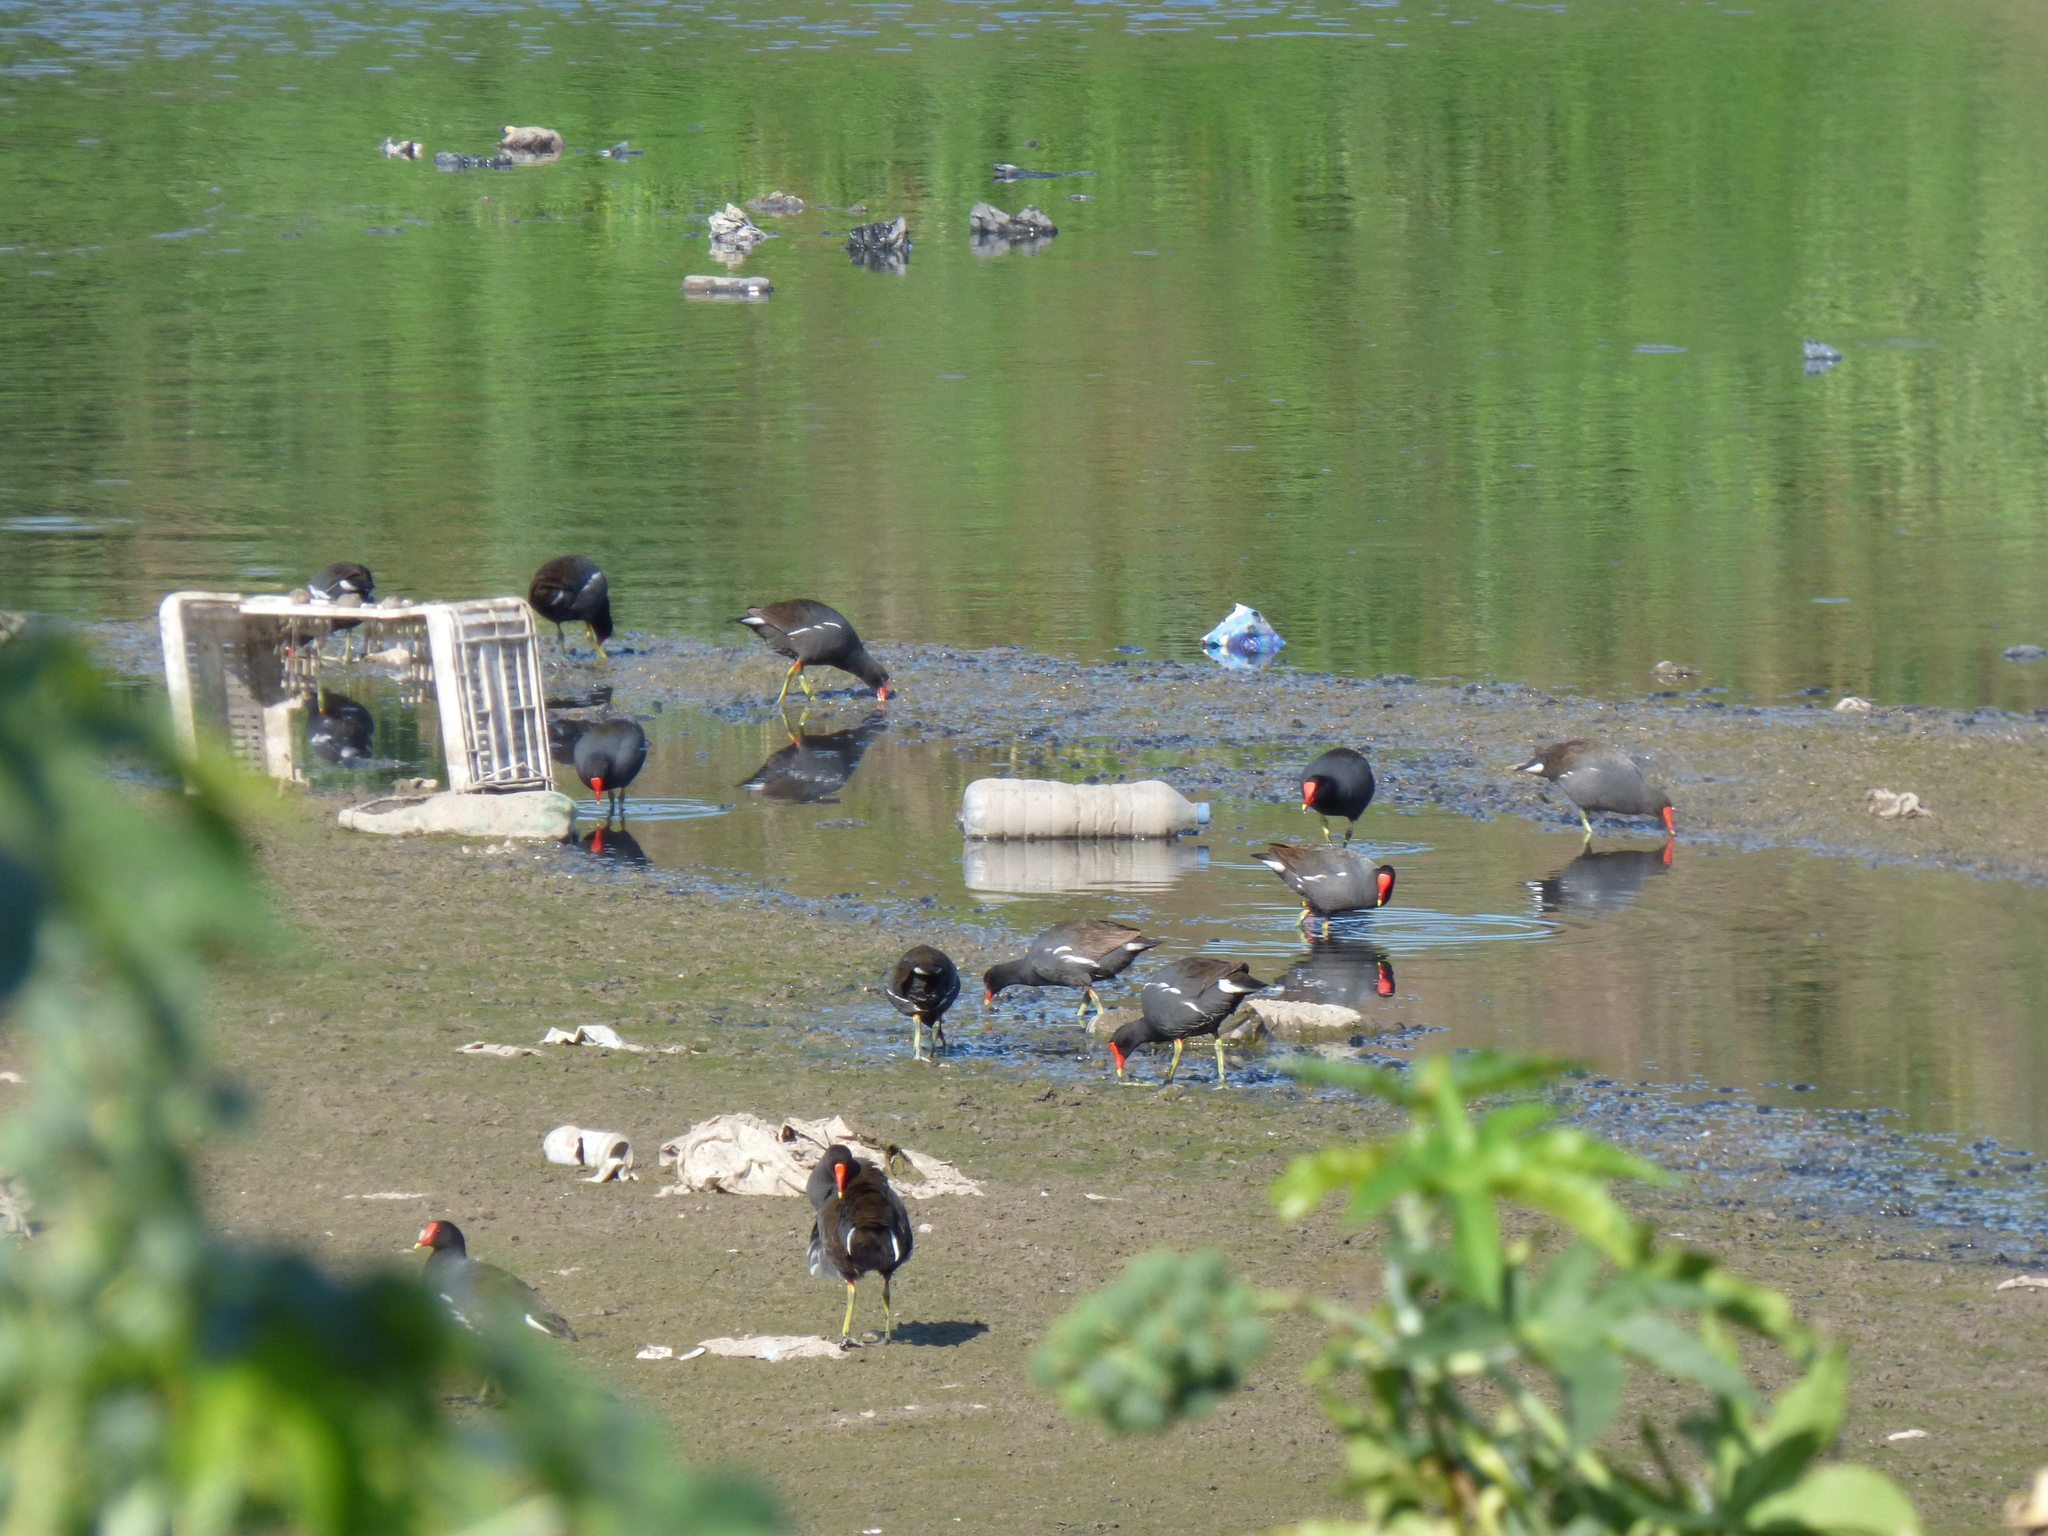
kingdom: Animalia
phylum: Chordata
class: Aves
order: Gruiformes
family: Rallidae
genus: Gallinula
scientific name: Gallinula chloropus
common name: Common moorhen
